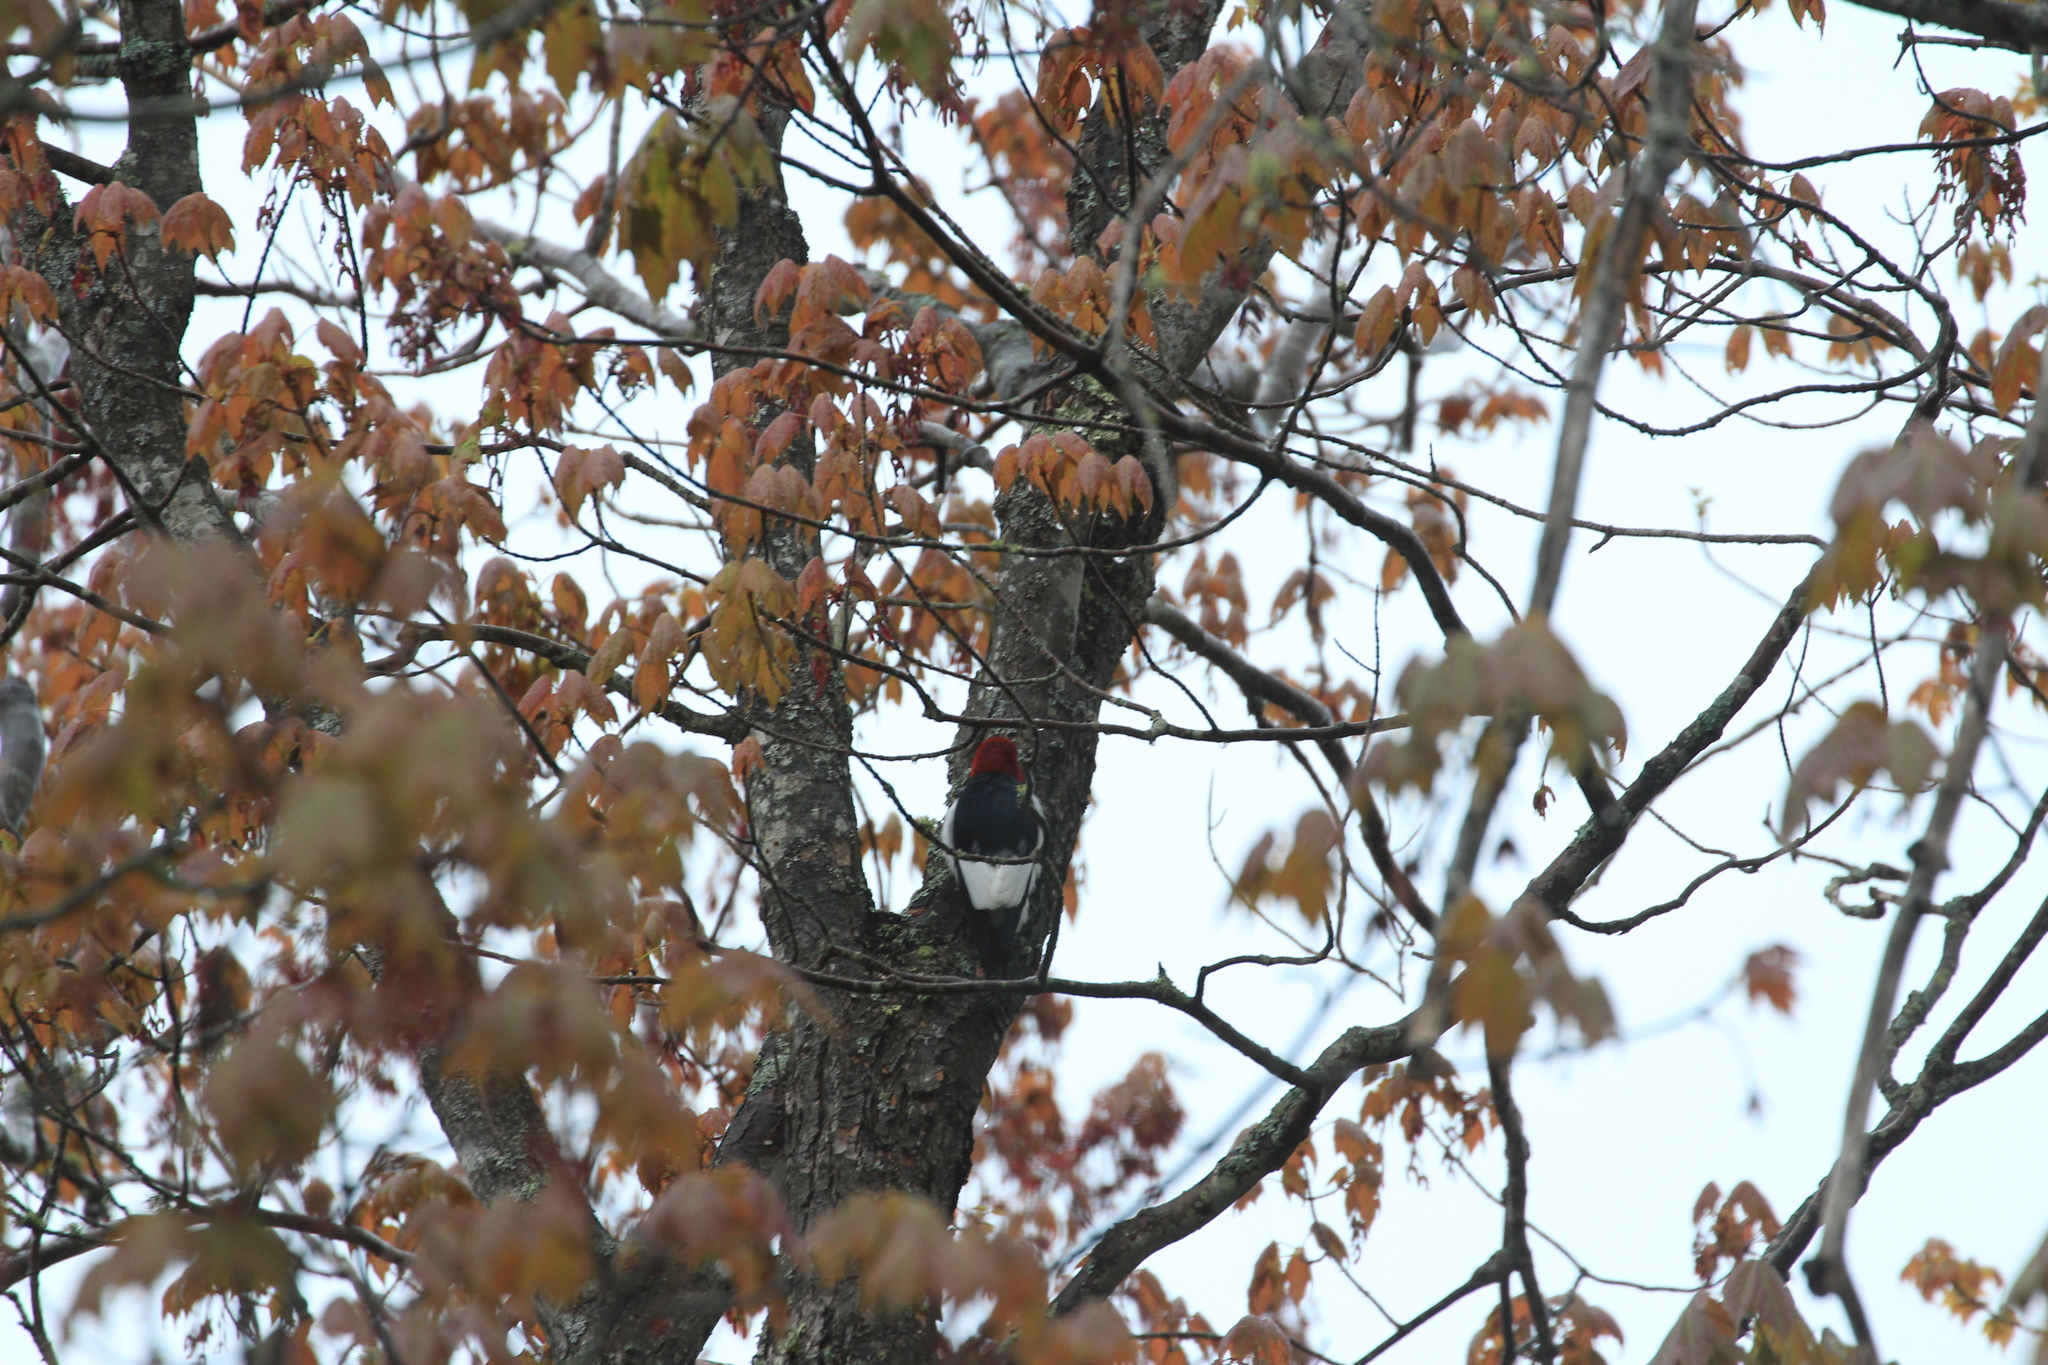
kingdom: Animalia
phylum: Chordata
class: Aves
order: Piciformes
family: Picidae
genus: Melanerpes
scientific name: Melanerpes erythrocephalus
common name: Red-headed woodpecker
